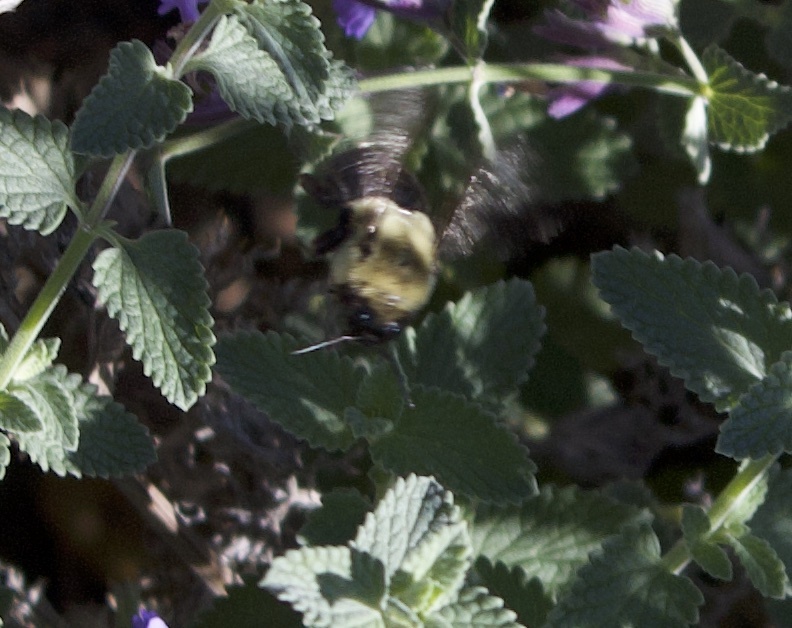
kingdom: Animalia
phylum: Arthropoda
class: Insecta
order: Hymenoptera
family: Apidae
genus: Bombus
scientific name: Bombus impatiens
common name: Common eastern bumble bee
